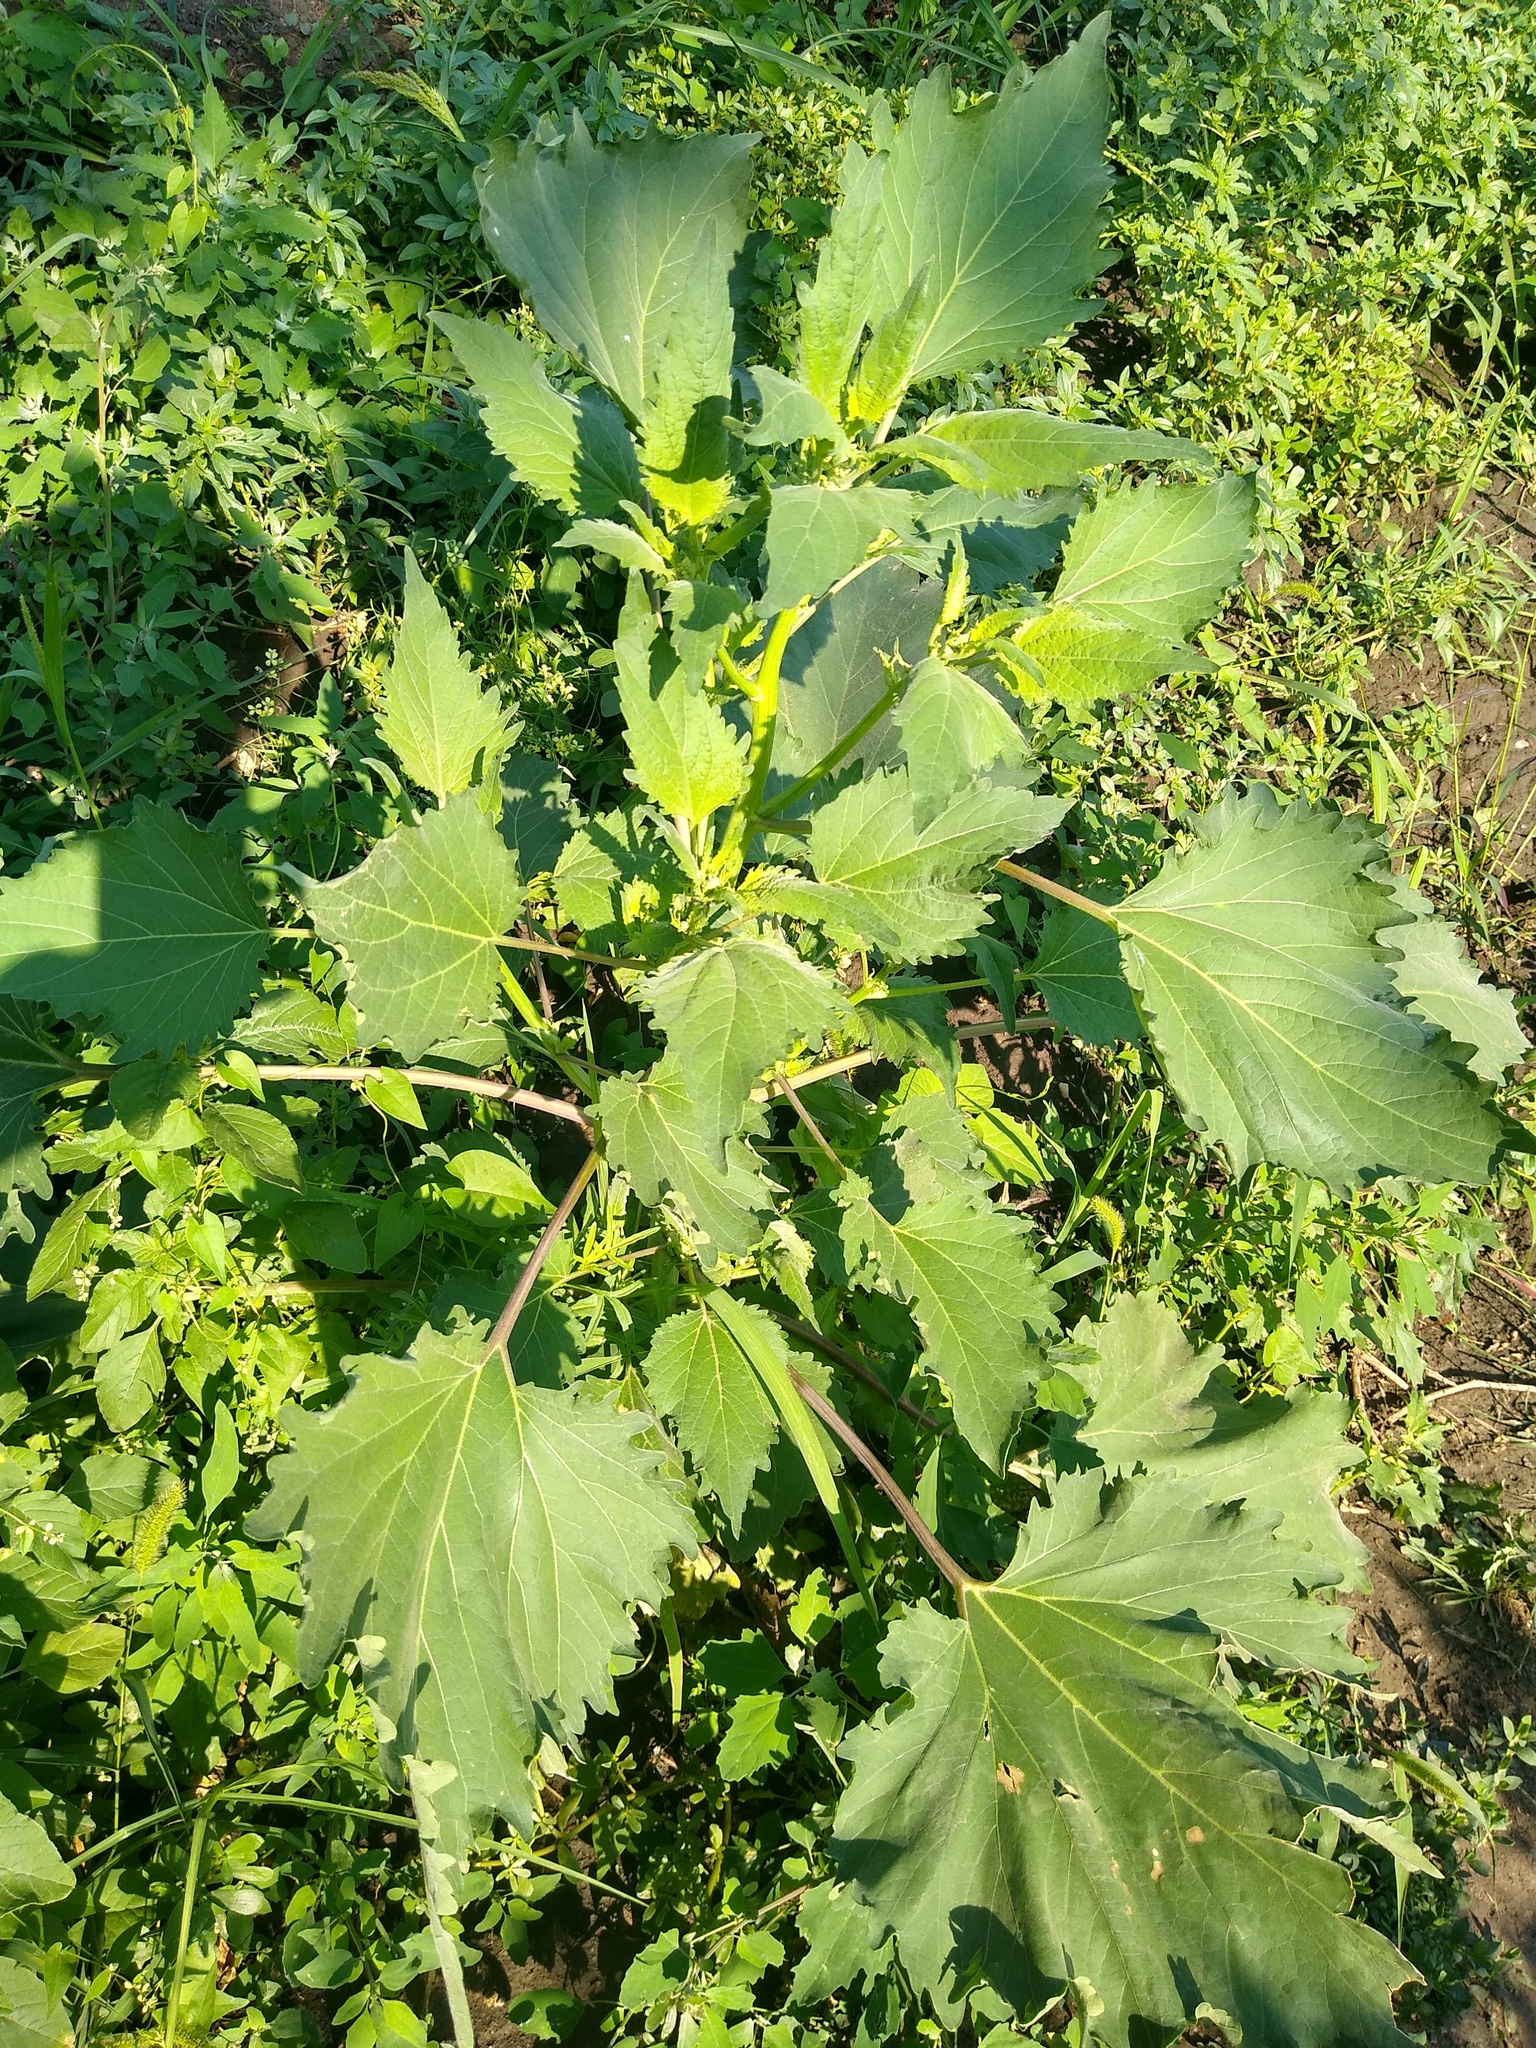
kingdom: Plantae
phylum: Tracheophyta
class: Magnoliopsida
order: Asterales
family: Asteraceae
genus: Cyclachaena
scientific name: Cyclachaena xanthiifolia
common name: Giant sumpweed
